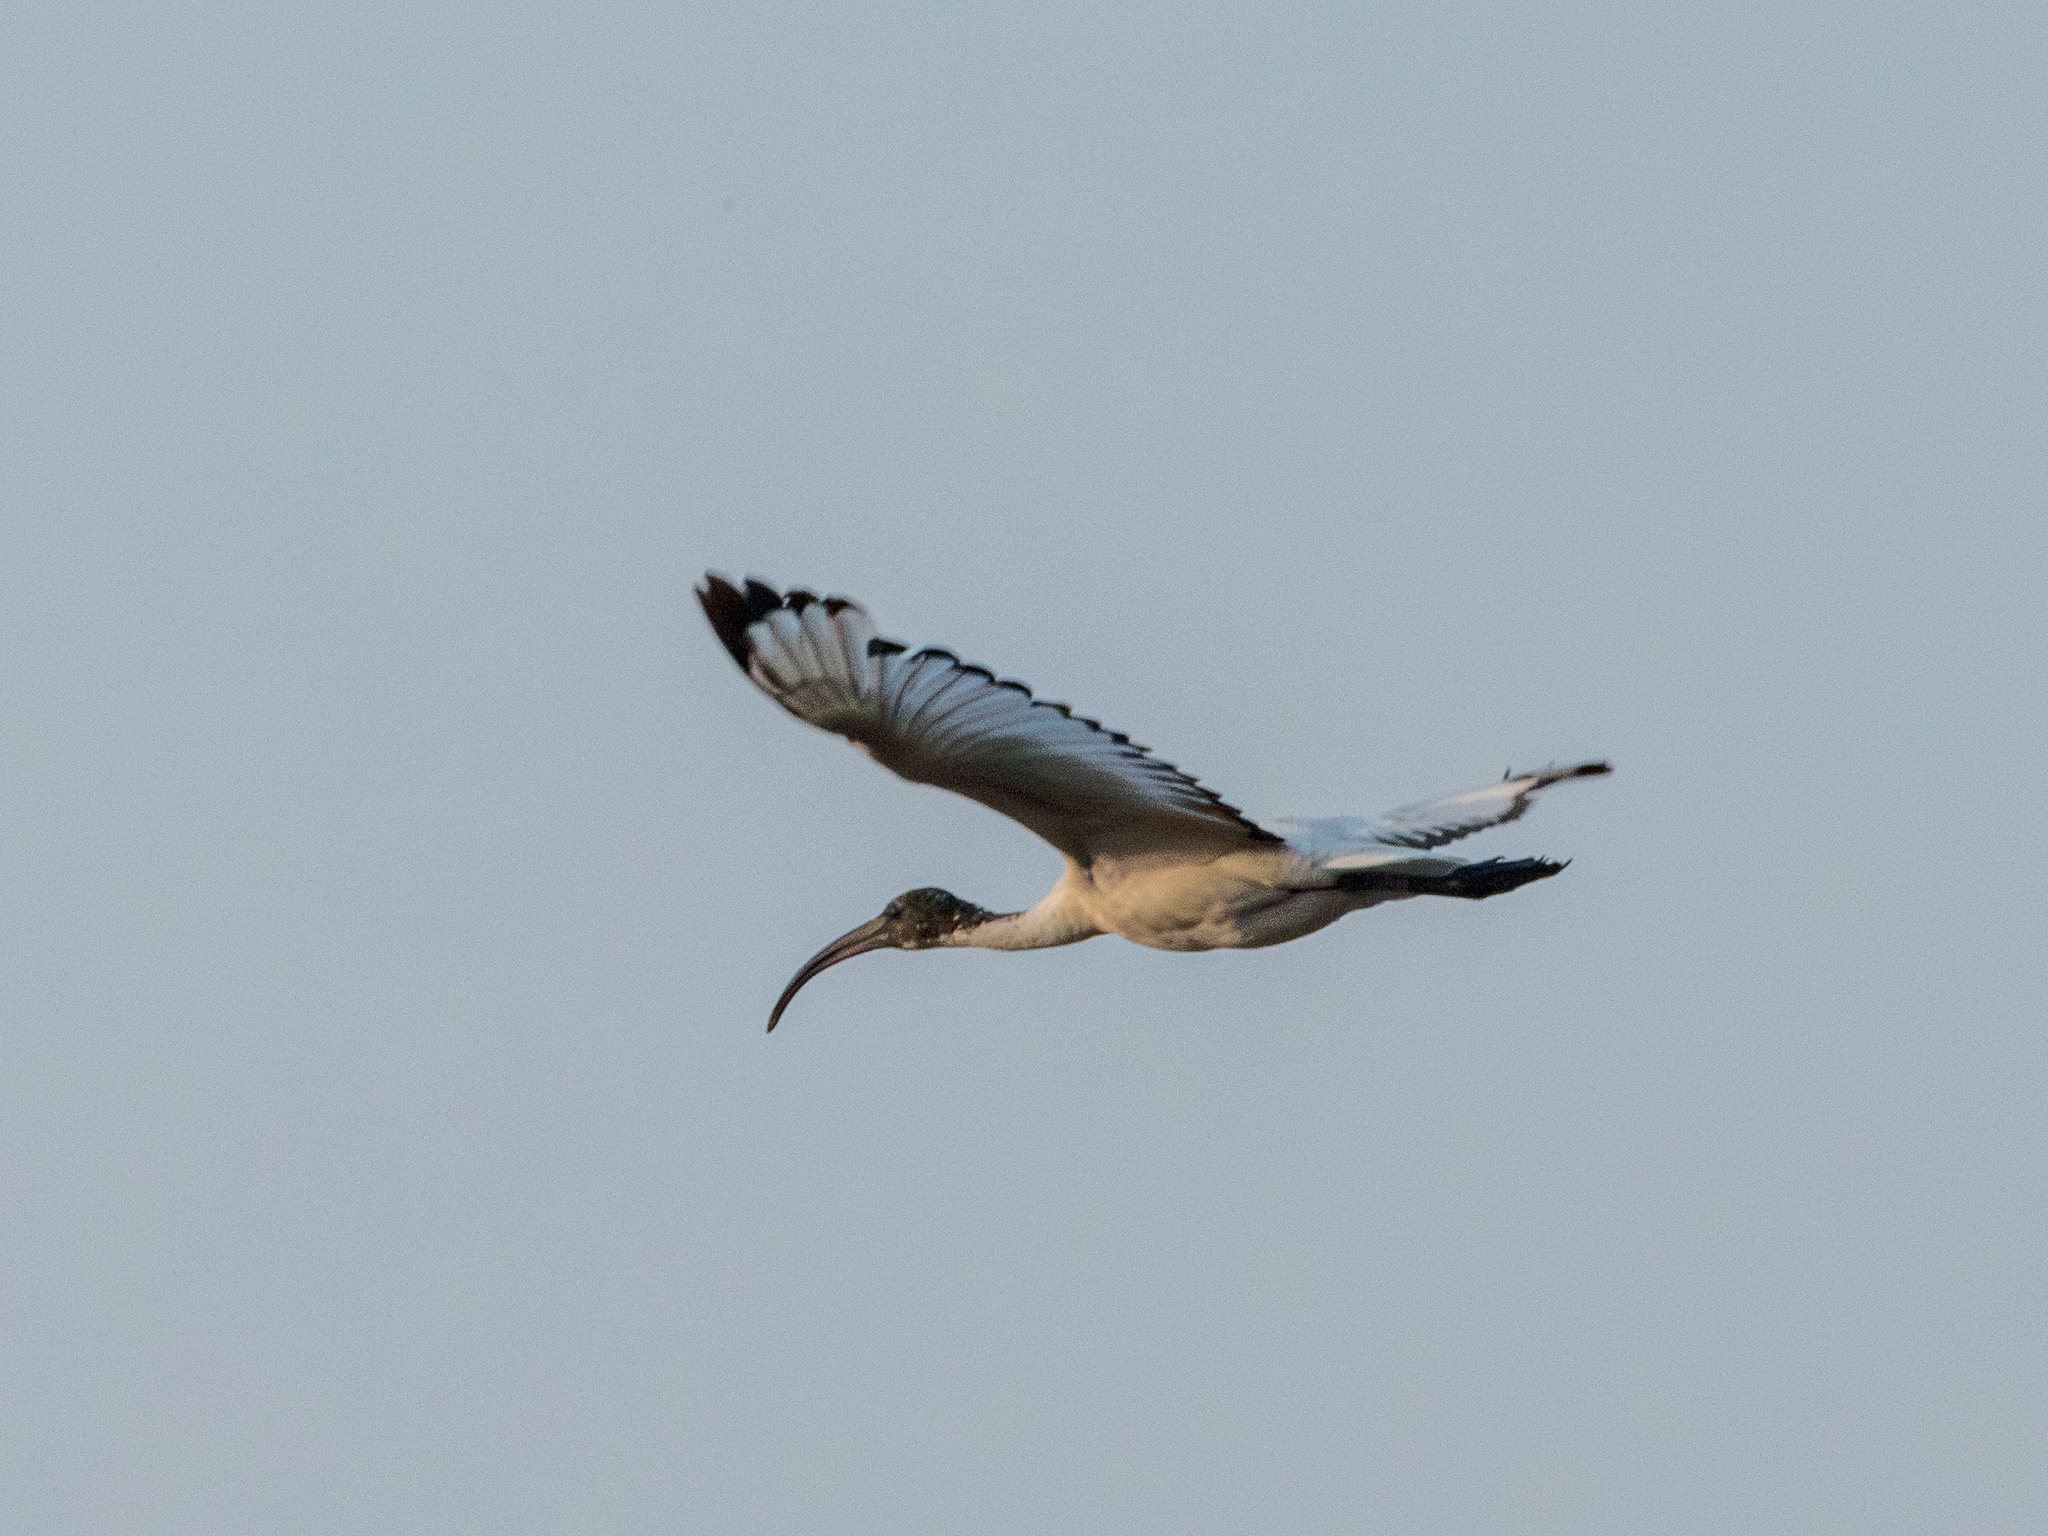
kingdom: Animalia
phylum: Chordata
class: Aves
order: Pelecaniformes
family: Threskiornithidae
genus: Threskiornis
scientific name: Threskiornis aethiopicus
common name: Sacred ibis
